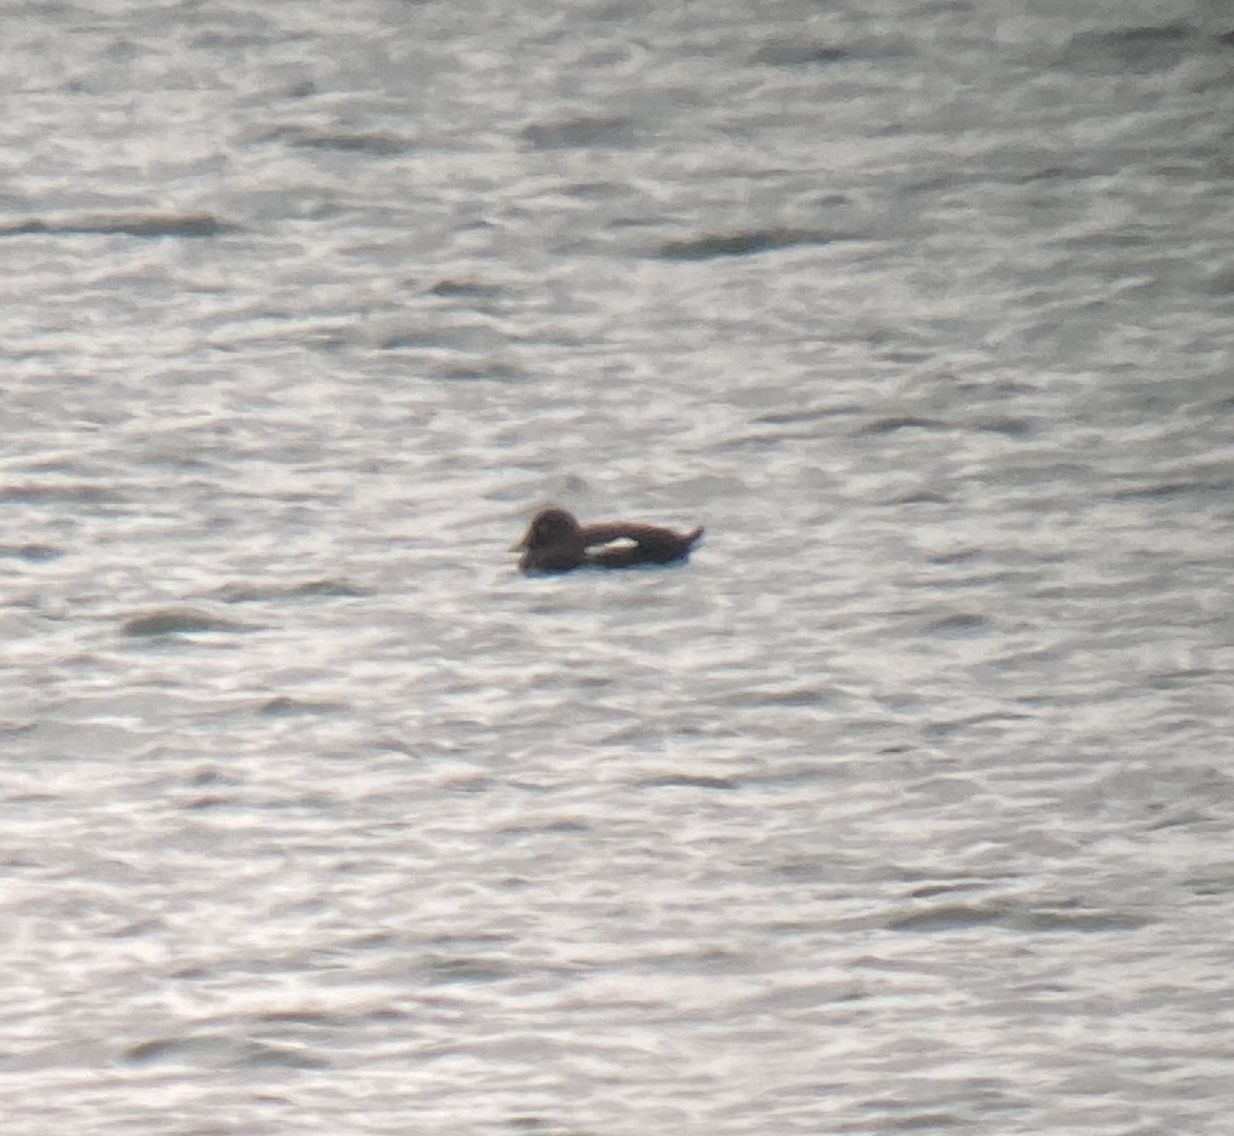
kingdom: Animalia
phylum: Chordata
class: Aves
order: Anseriformes
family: Anatidae
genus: Melanitta
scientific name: Melanitta deglandi
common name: White-winged scoter
